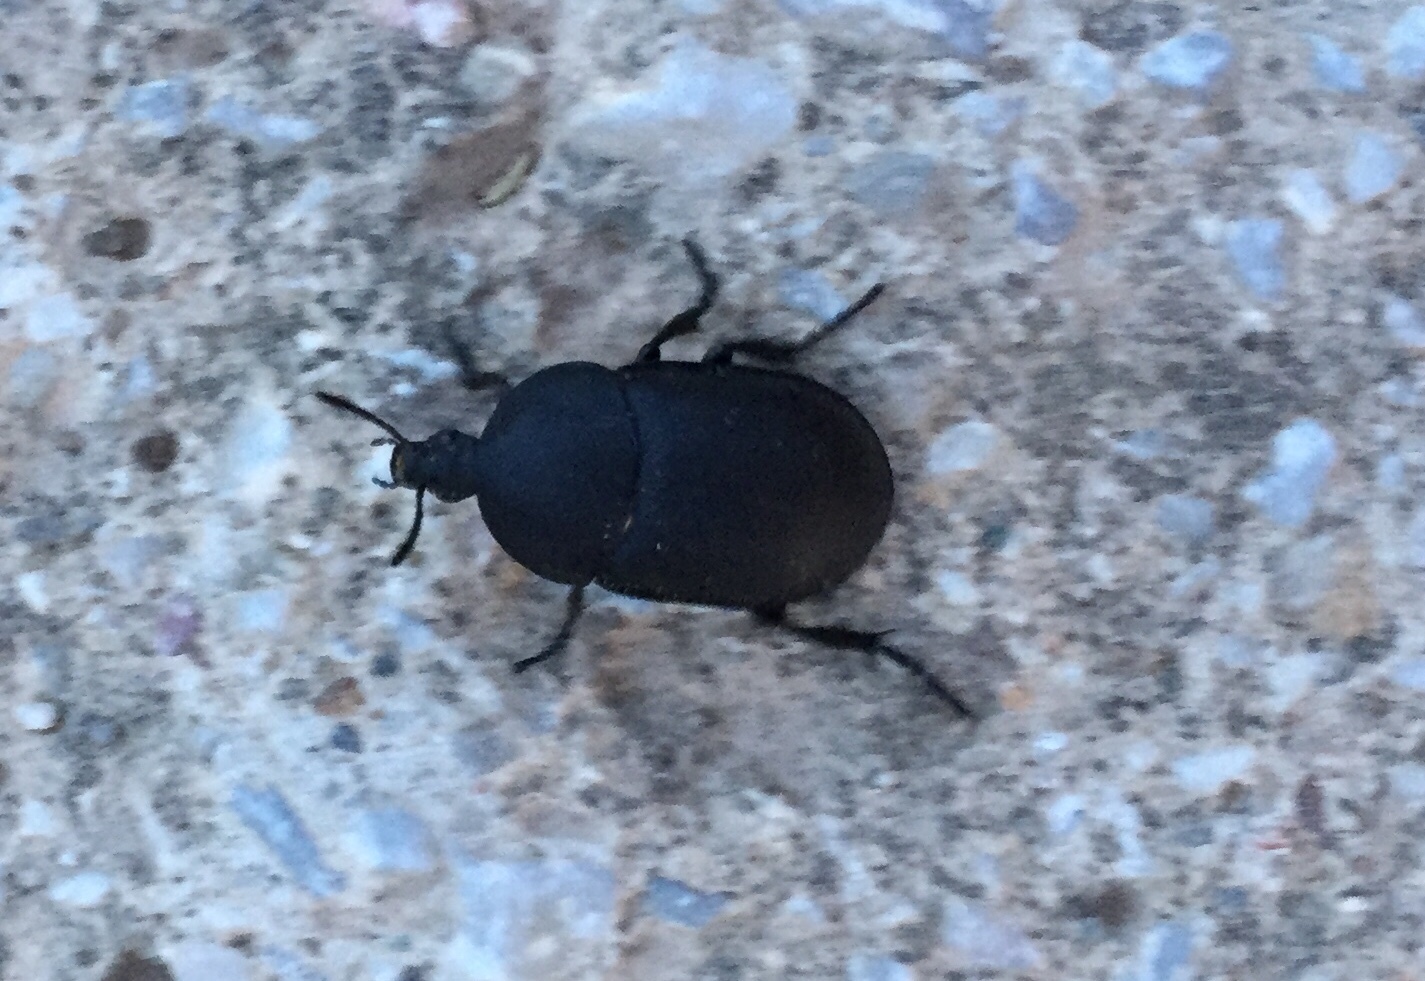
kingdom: Animalia
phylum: Arthropoda
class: Insecta
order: Coleoptera
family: Staphylinidae
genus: Silpha
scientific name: Silpha laevigata
